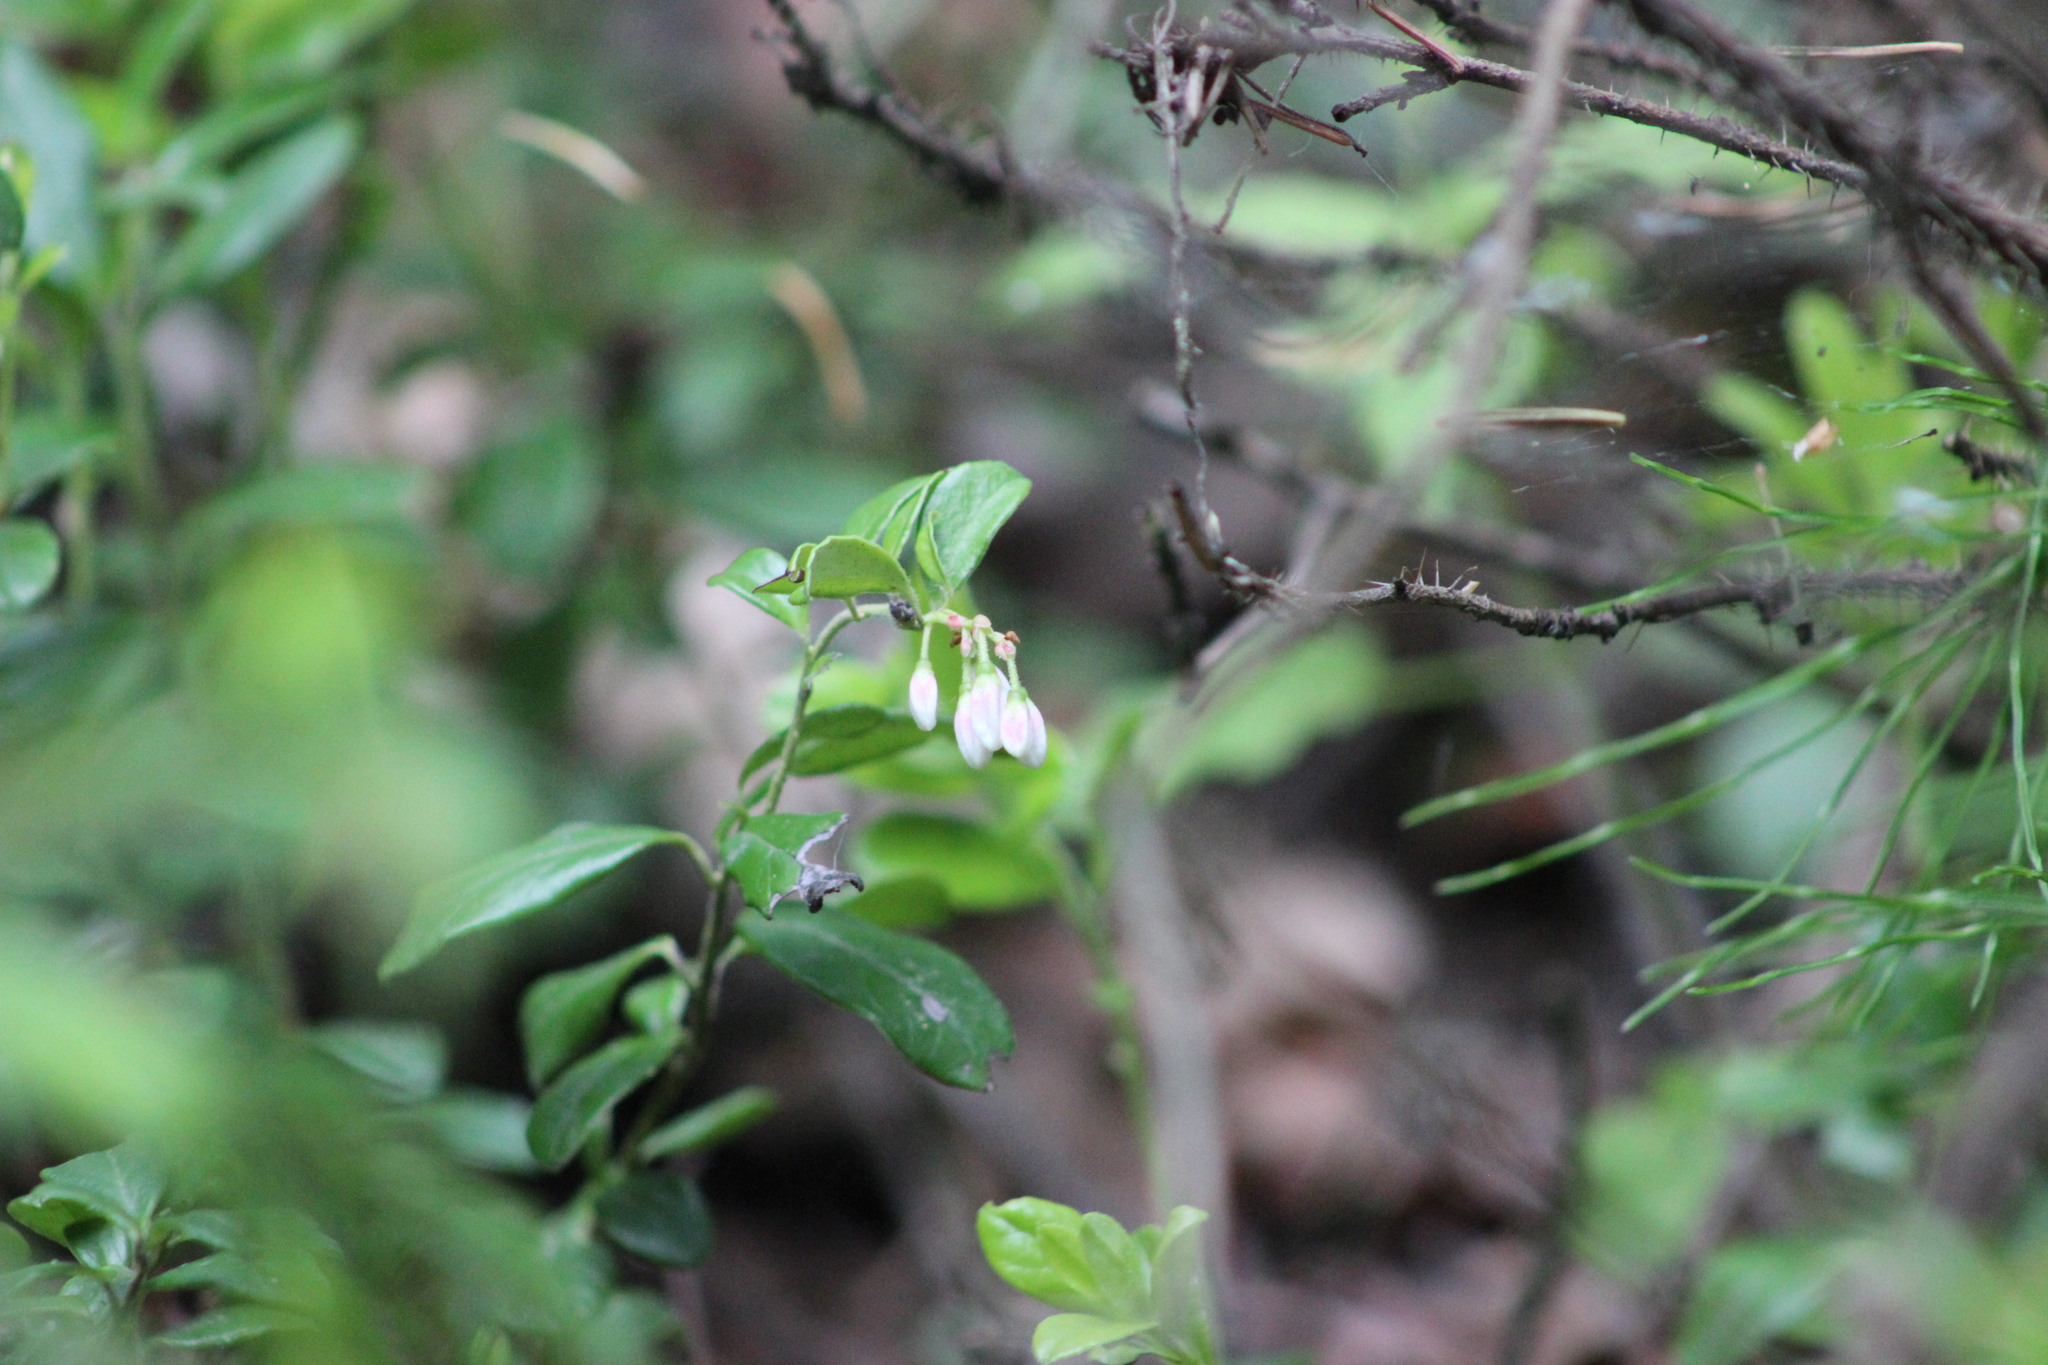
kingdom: Plantae
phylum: Tracheophyta
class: Magnoliopsida
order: Ericales
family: Ericaceae
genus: Vaccinium
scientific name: Vaccinium vitis-idaea
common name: Cowberry
